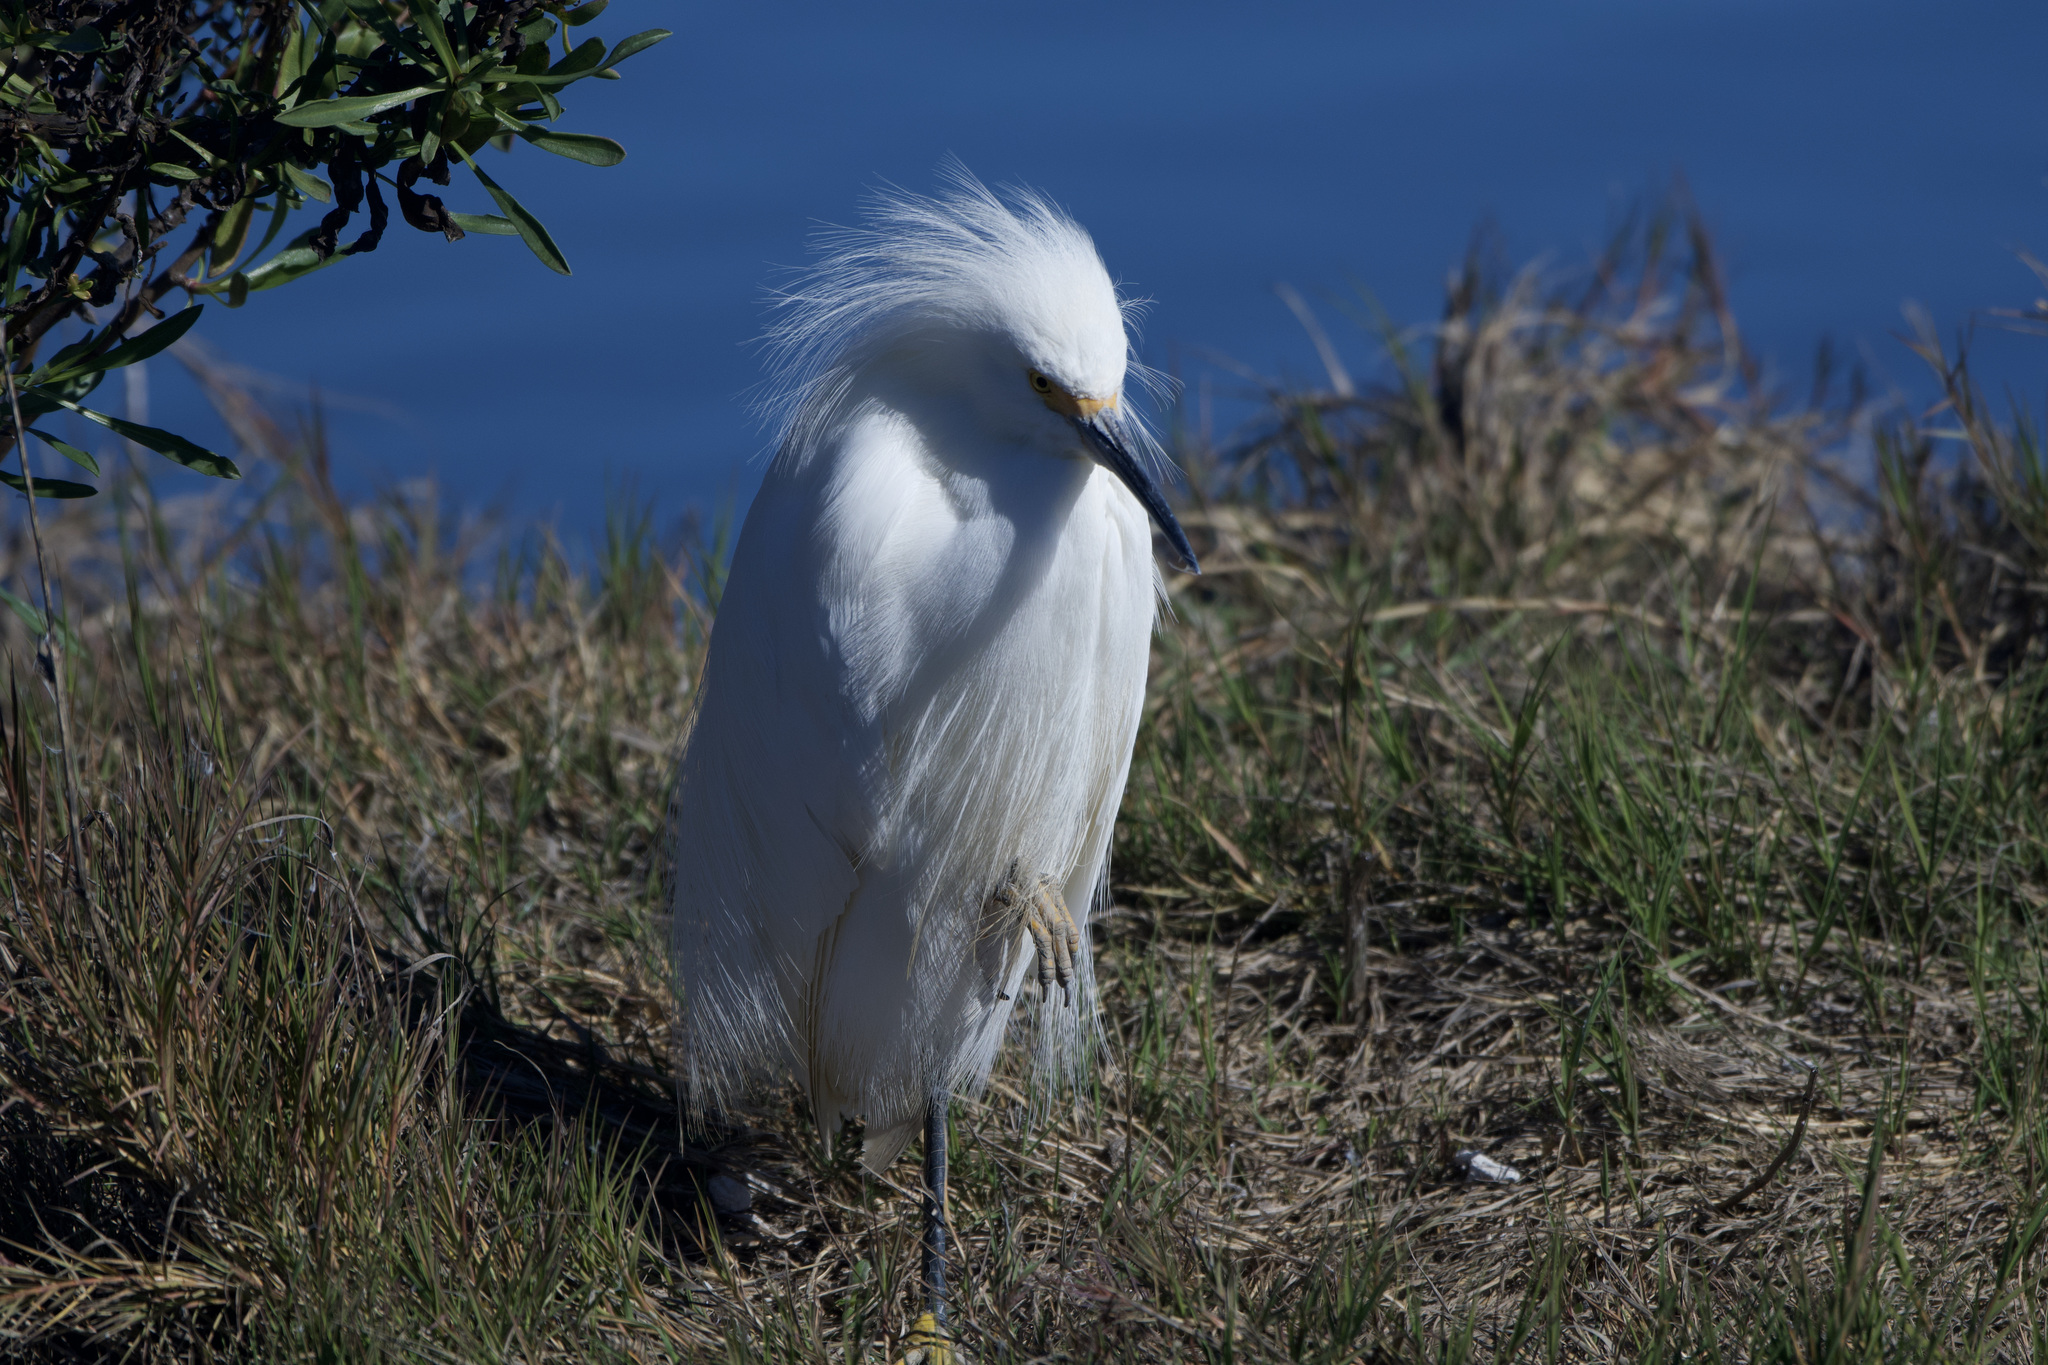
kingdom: Animalia
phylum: Chordata
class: Aves
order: Pelecaniformes
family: Ardeidae
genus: Egretta
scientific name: Egretta thula
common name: Snowy egret
